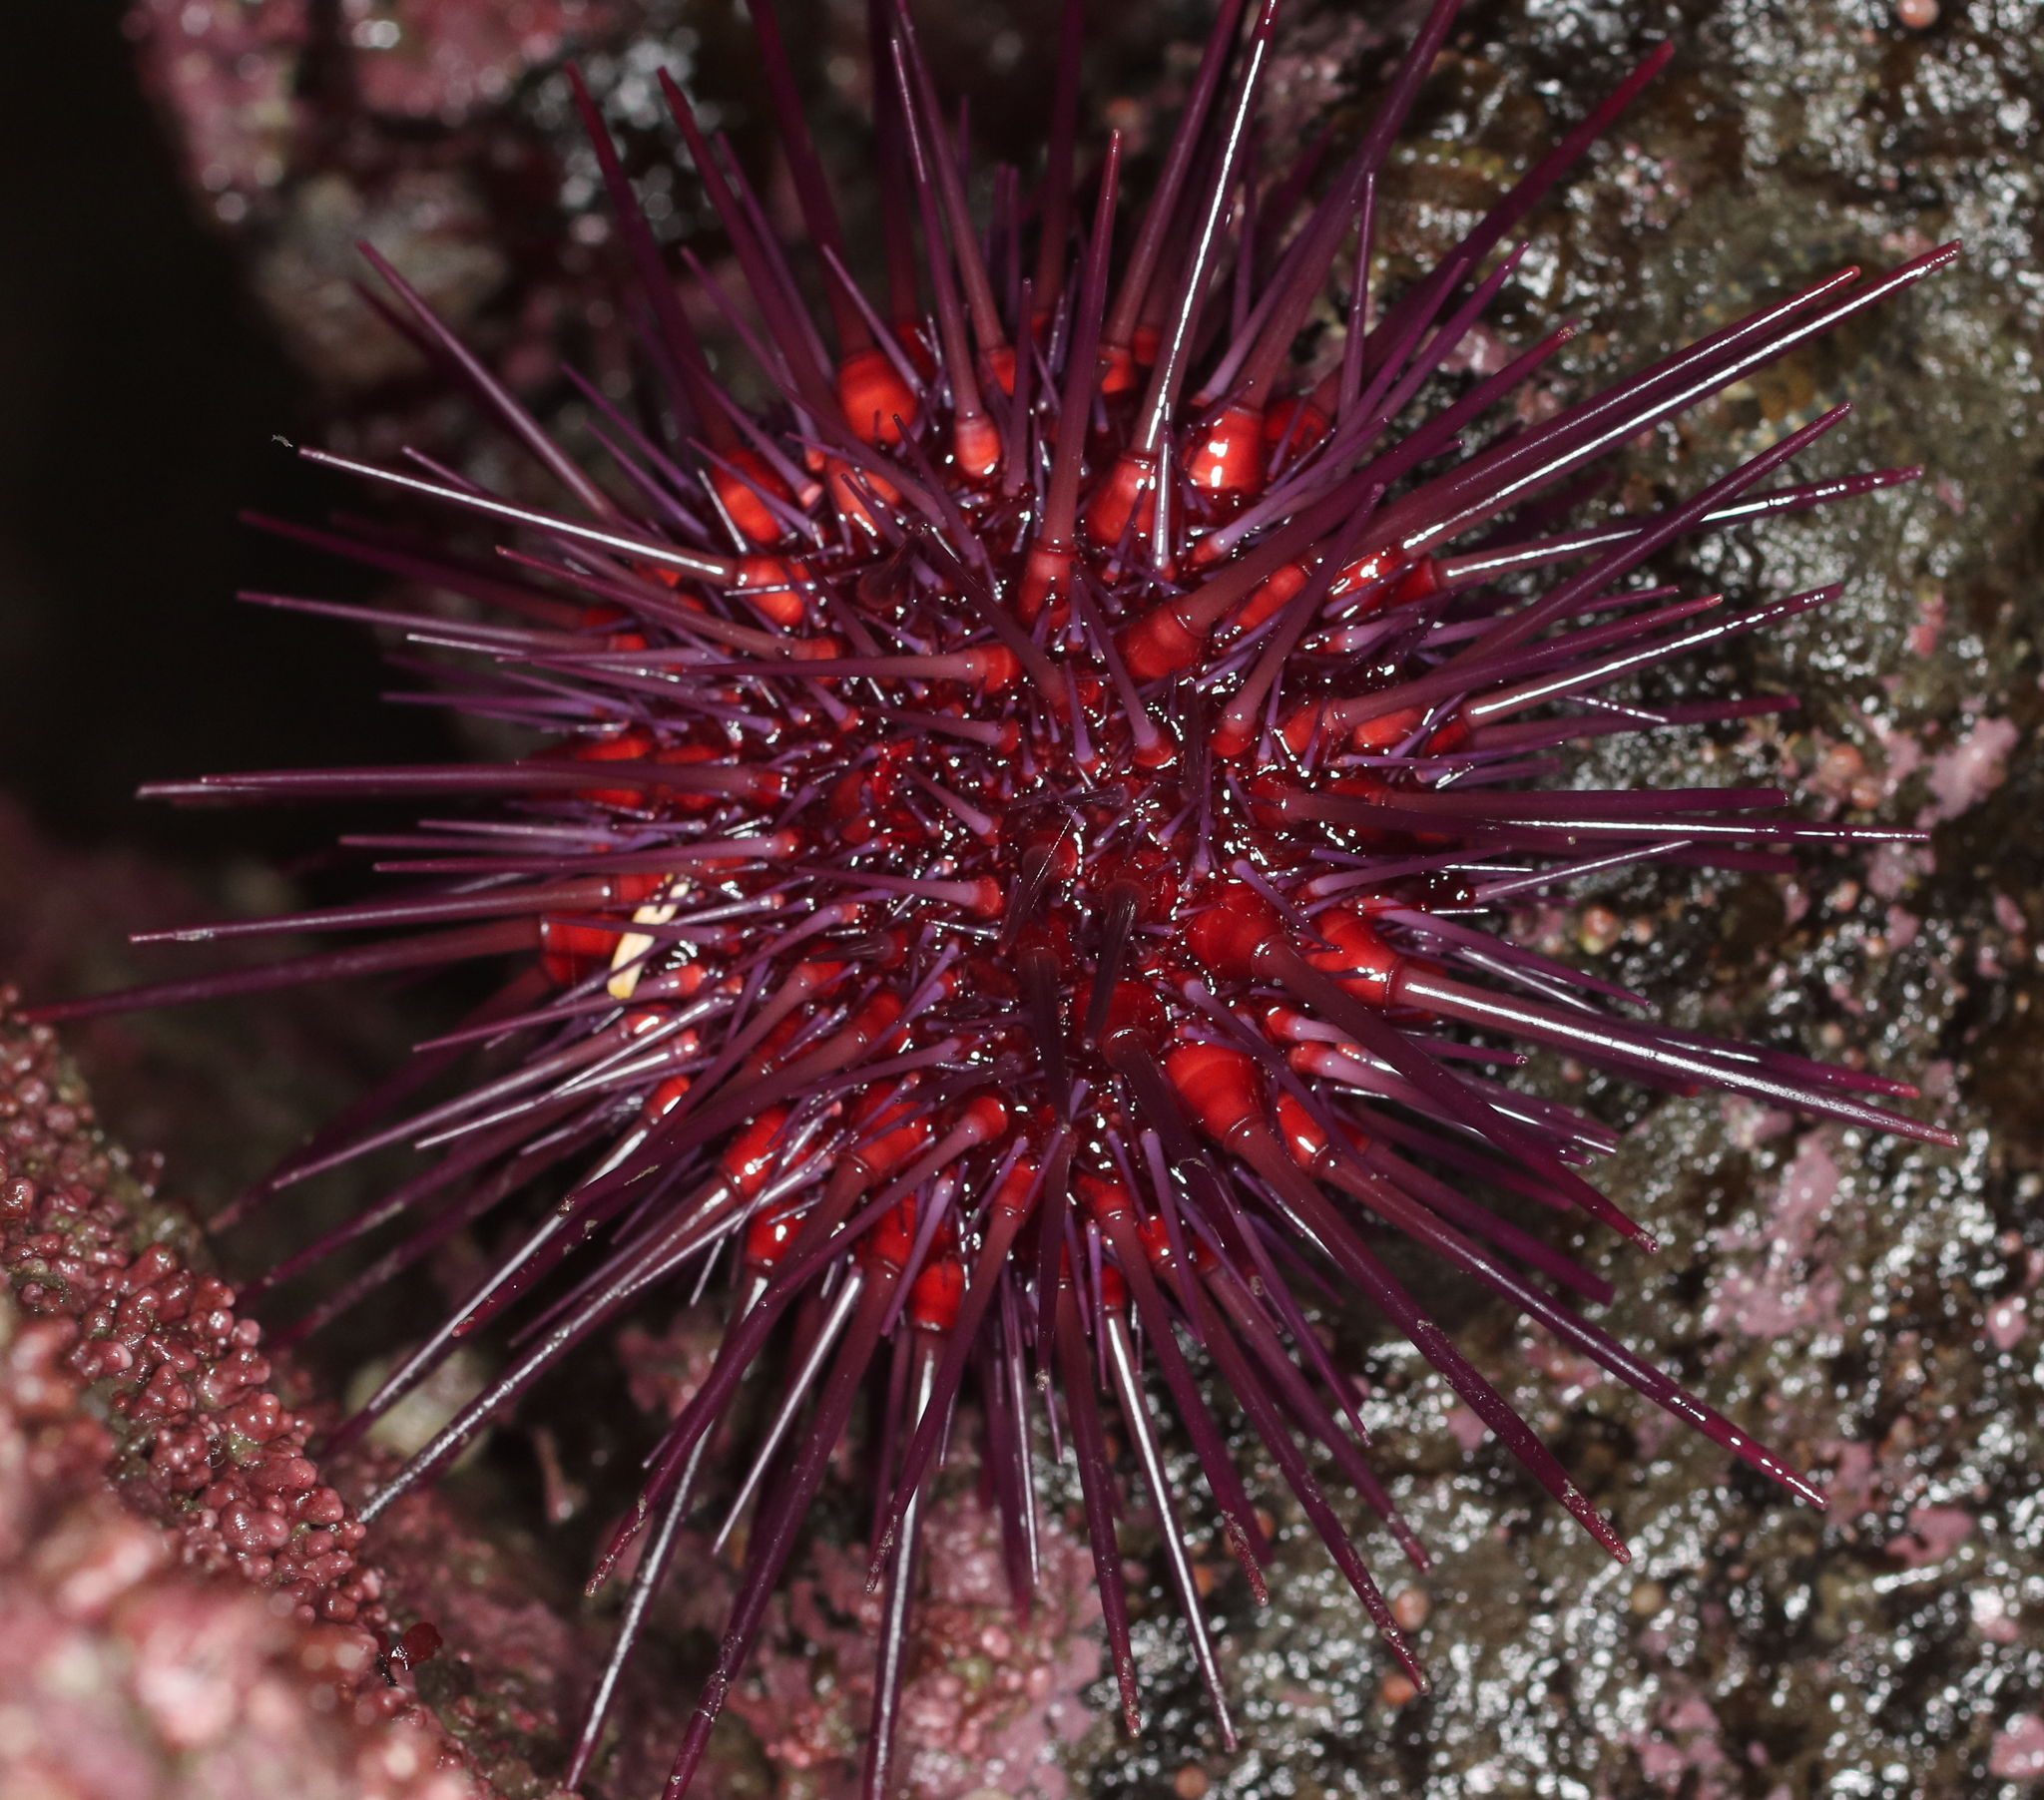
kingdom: Animalia
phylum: Echinodermata
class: Echinoidea
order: Camarodonta
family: Strongylocentrotidae
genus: Mesocentrotus
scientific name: Mesocentrotus franciscanus
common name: Red sea urchin
